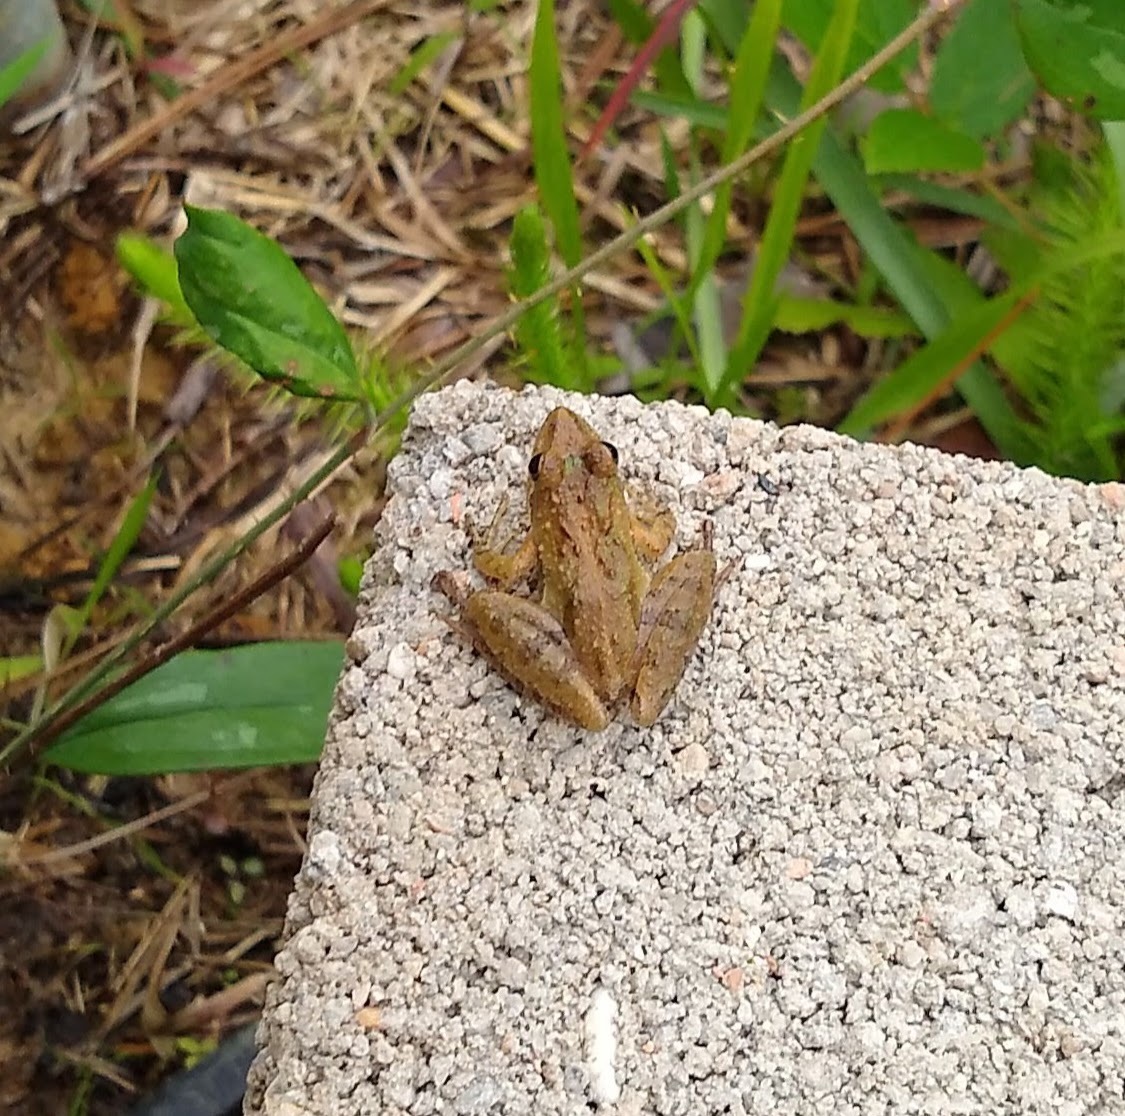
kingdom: Animalia
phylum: Chordata
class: Amphibia
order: Anura
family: Hylidae
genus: Acris
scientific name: Acris gryllus
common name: Southern cricket frog
